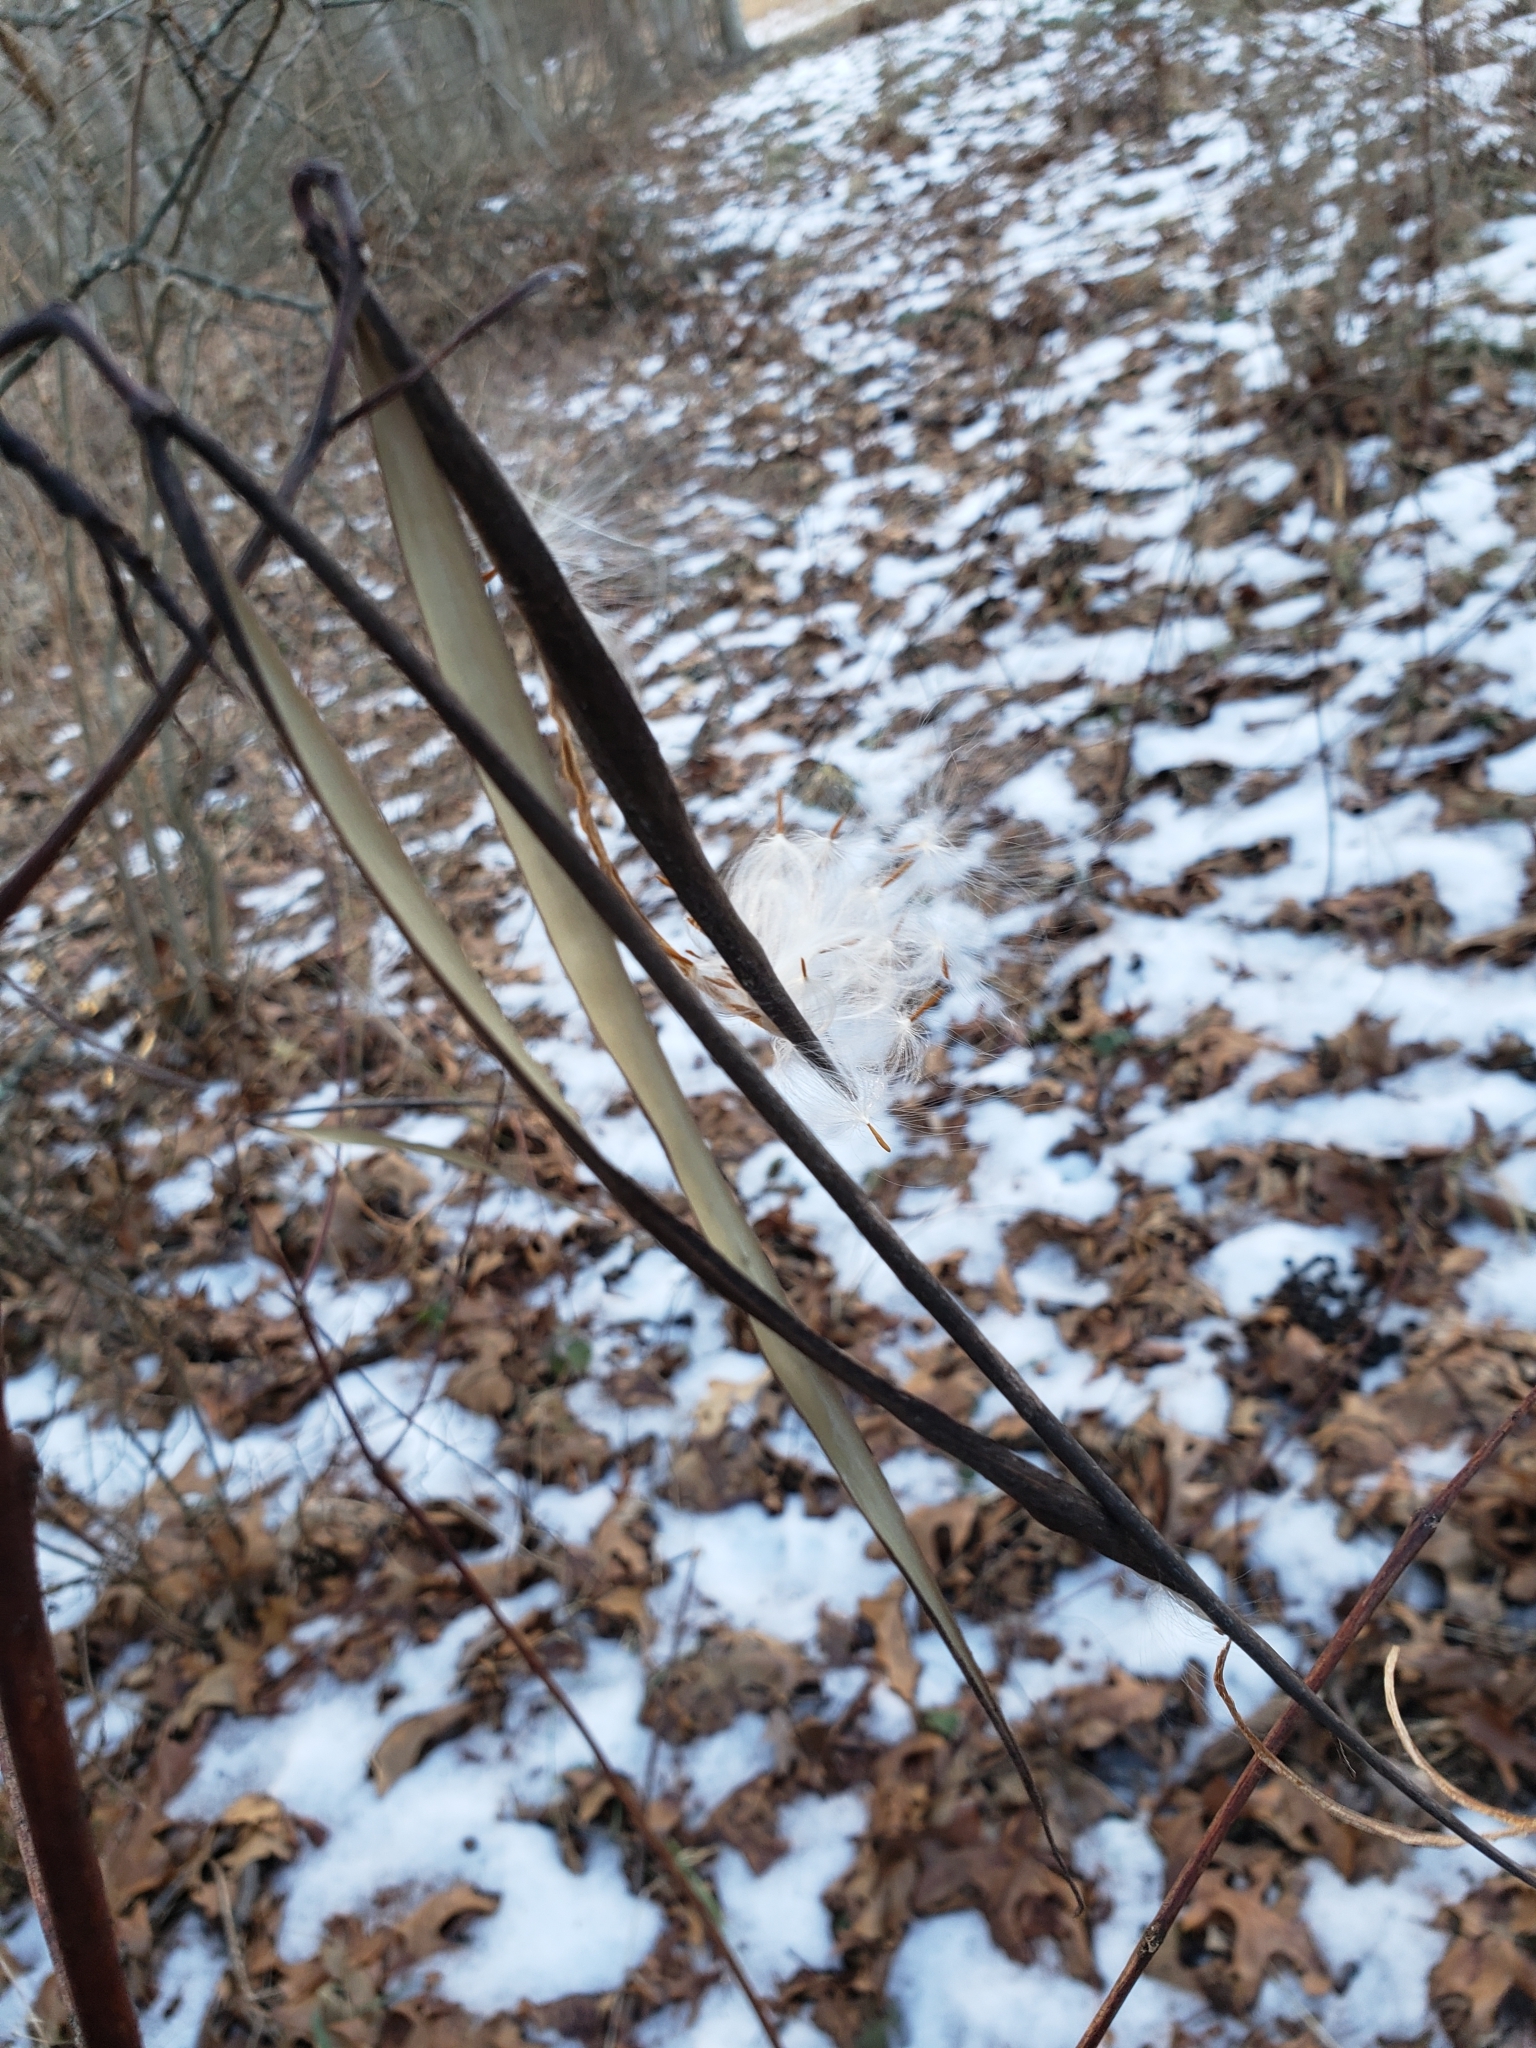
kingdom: Plantae
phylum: Tracheophyta
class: Magnoliopsida
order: Gentianales
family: Apocynaceae
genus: Apocynum
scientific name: Apocynum cannabinum
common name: Hemp dogbane
